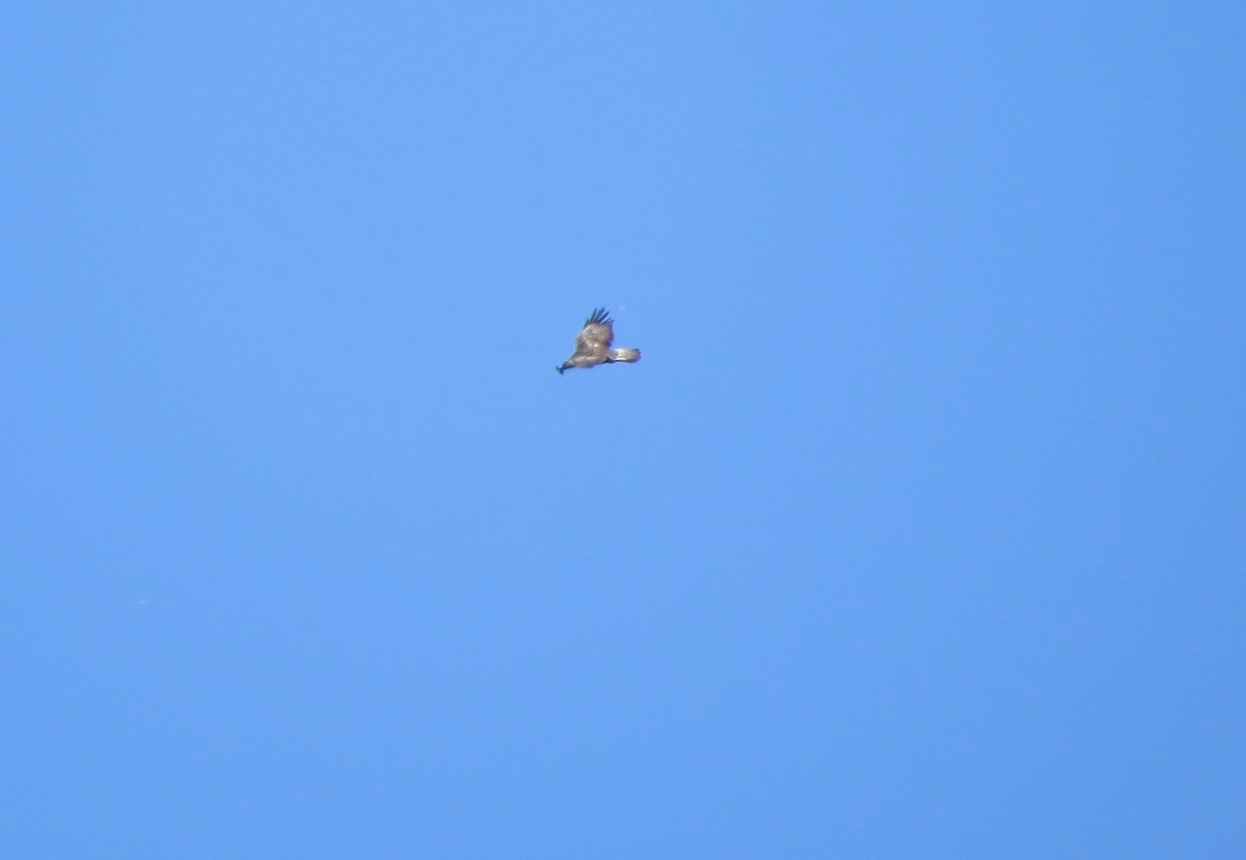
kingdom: Animalia
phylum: Chordata
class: Aves
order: Accipitriformes
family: Accipitridae
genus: Aquila
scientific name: Aquila chrysaetos
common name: Golden eagle
